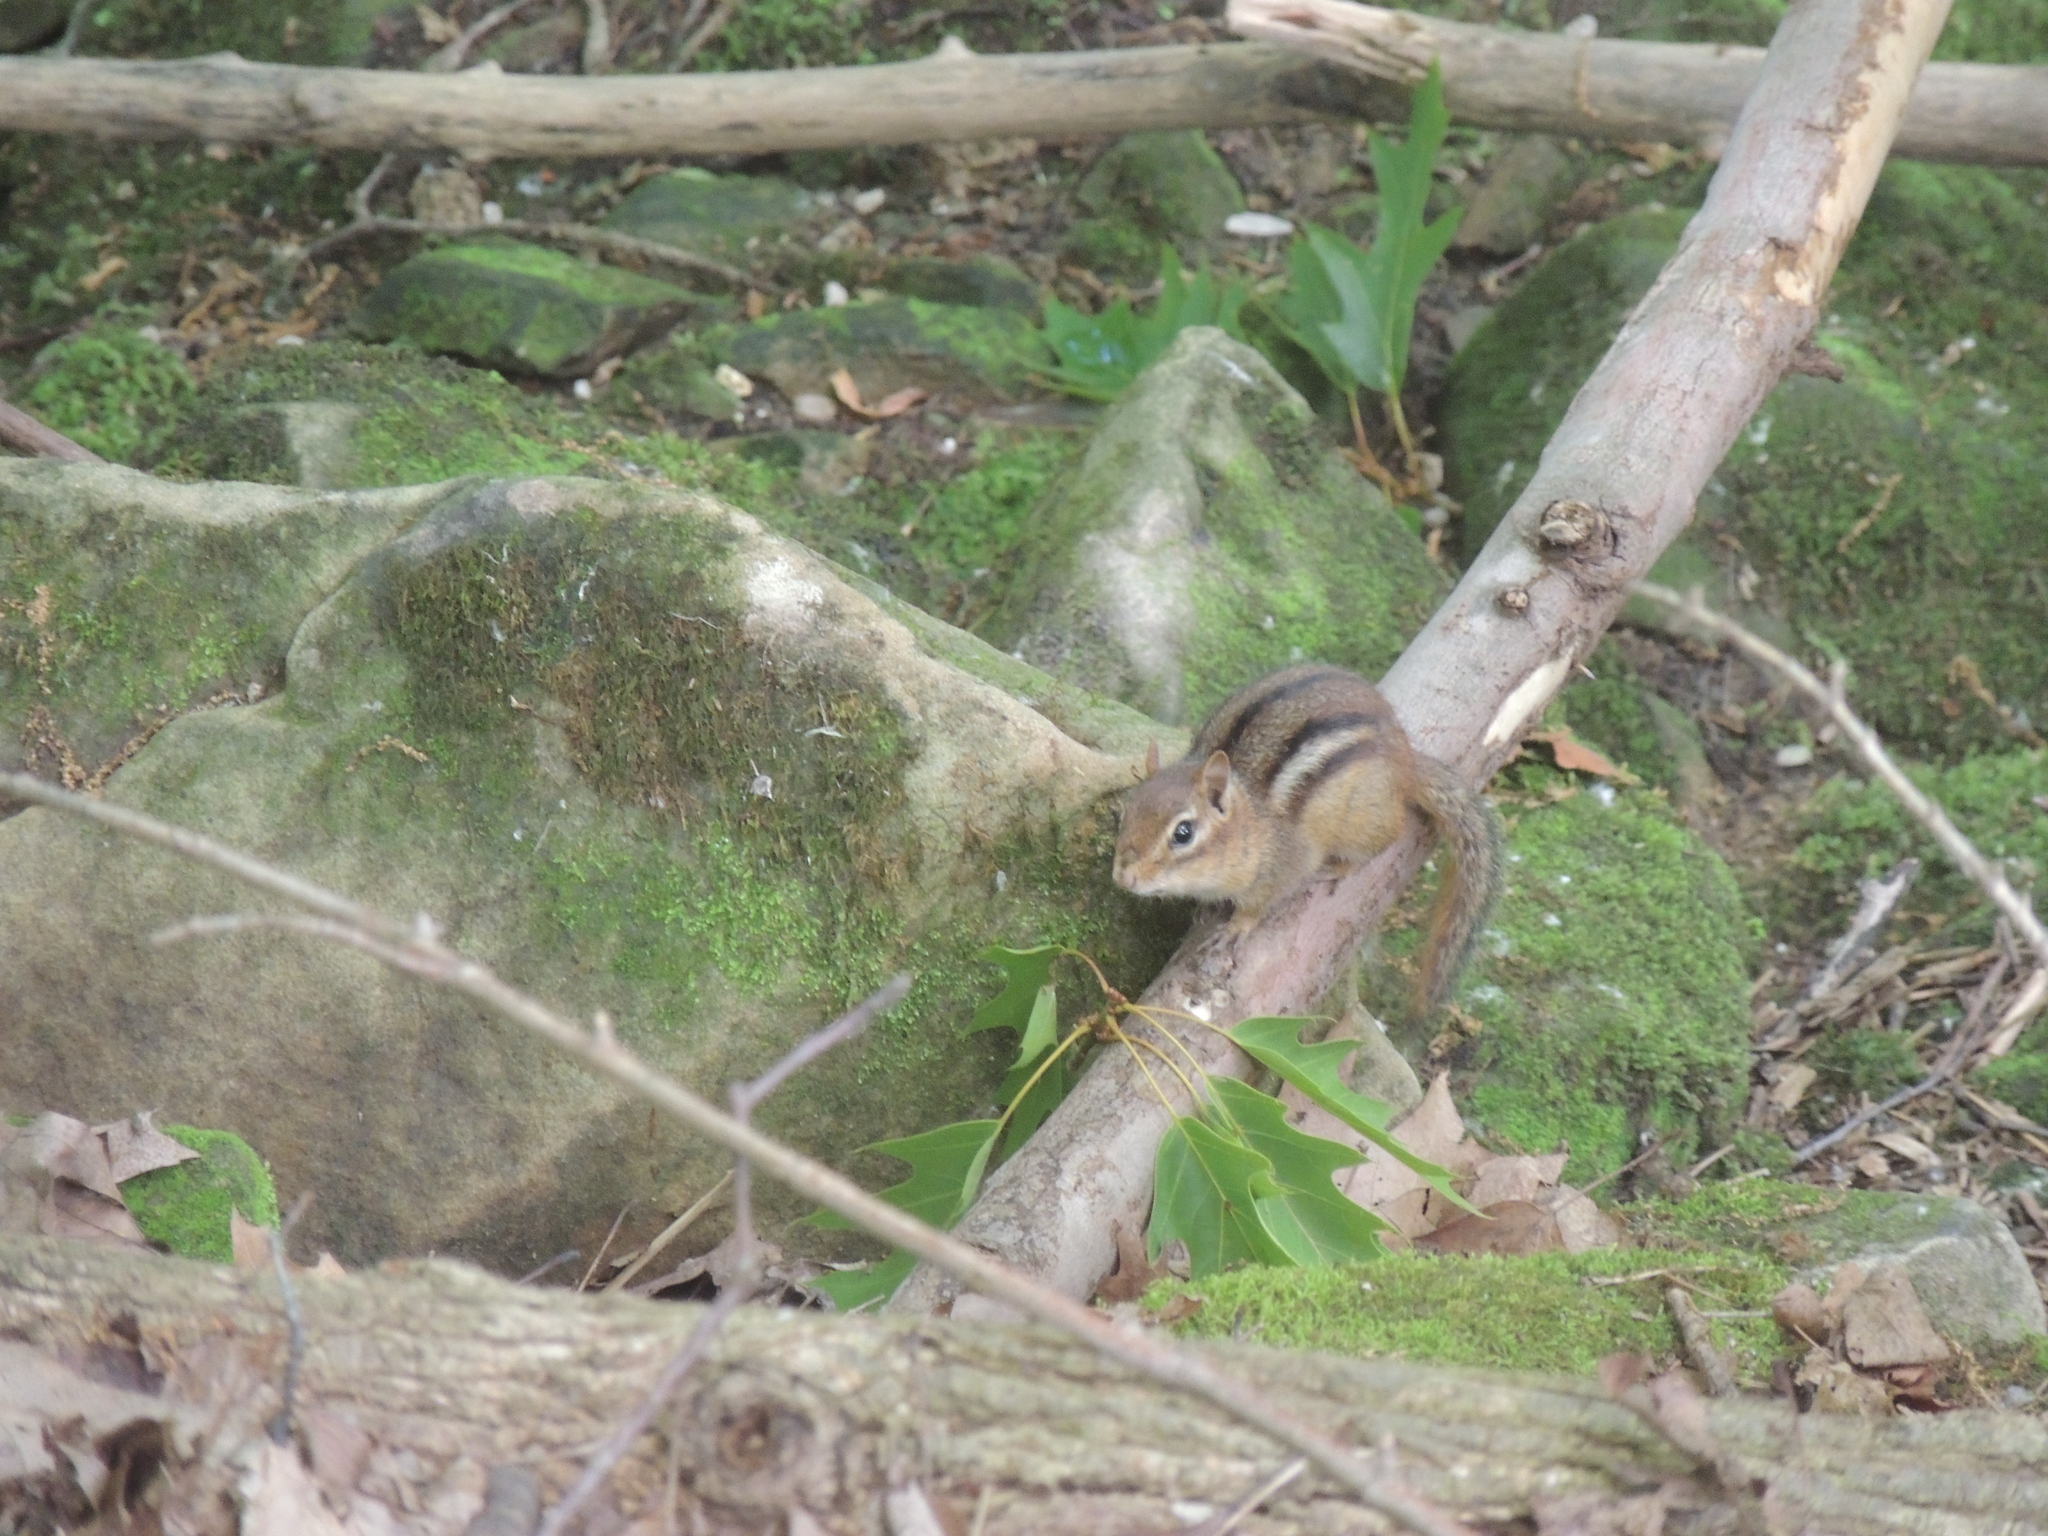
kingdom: Animalia
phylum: Chordata
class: Mammalia
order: Rodentia
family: Sciuridae
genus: Tamias
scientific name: Tamias striatus
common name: Eastern chipmunk
